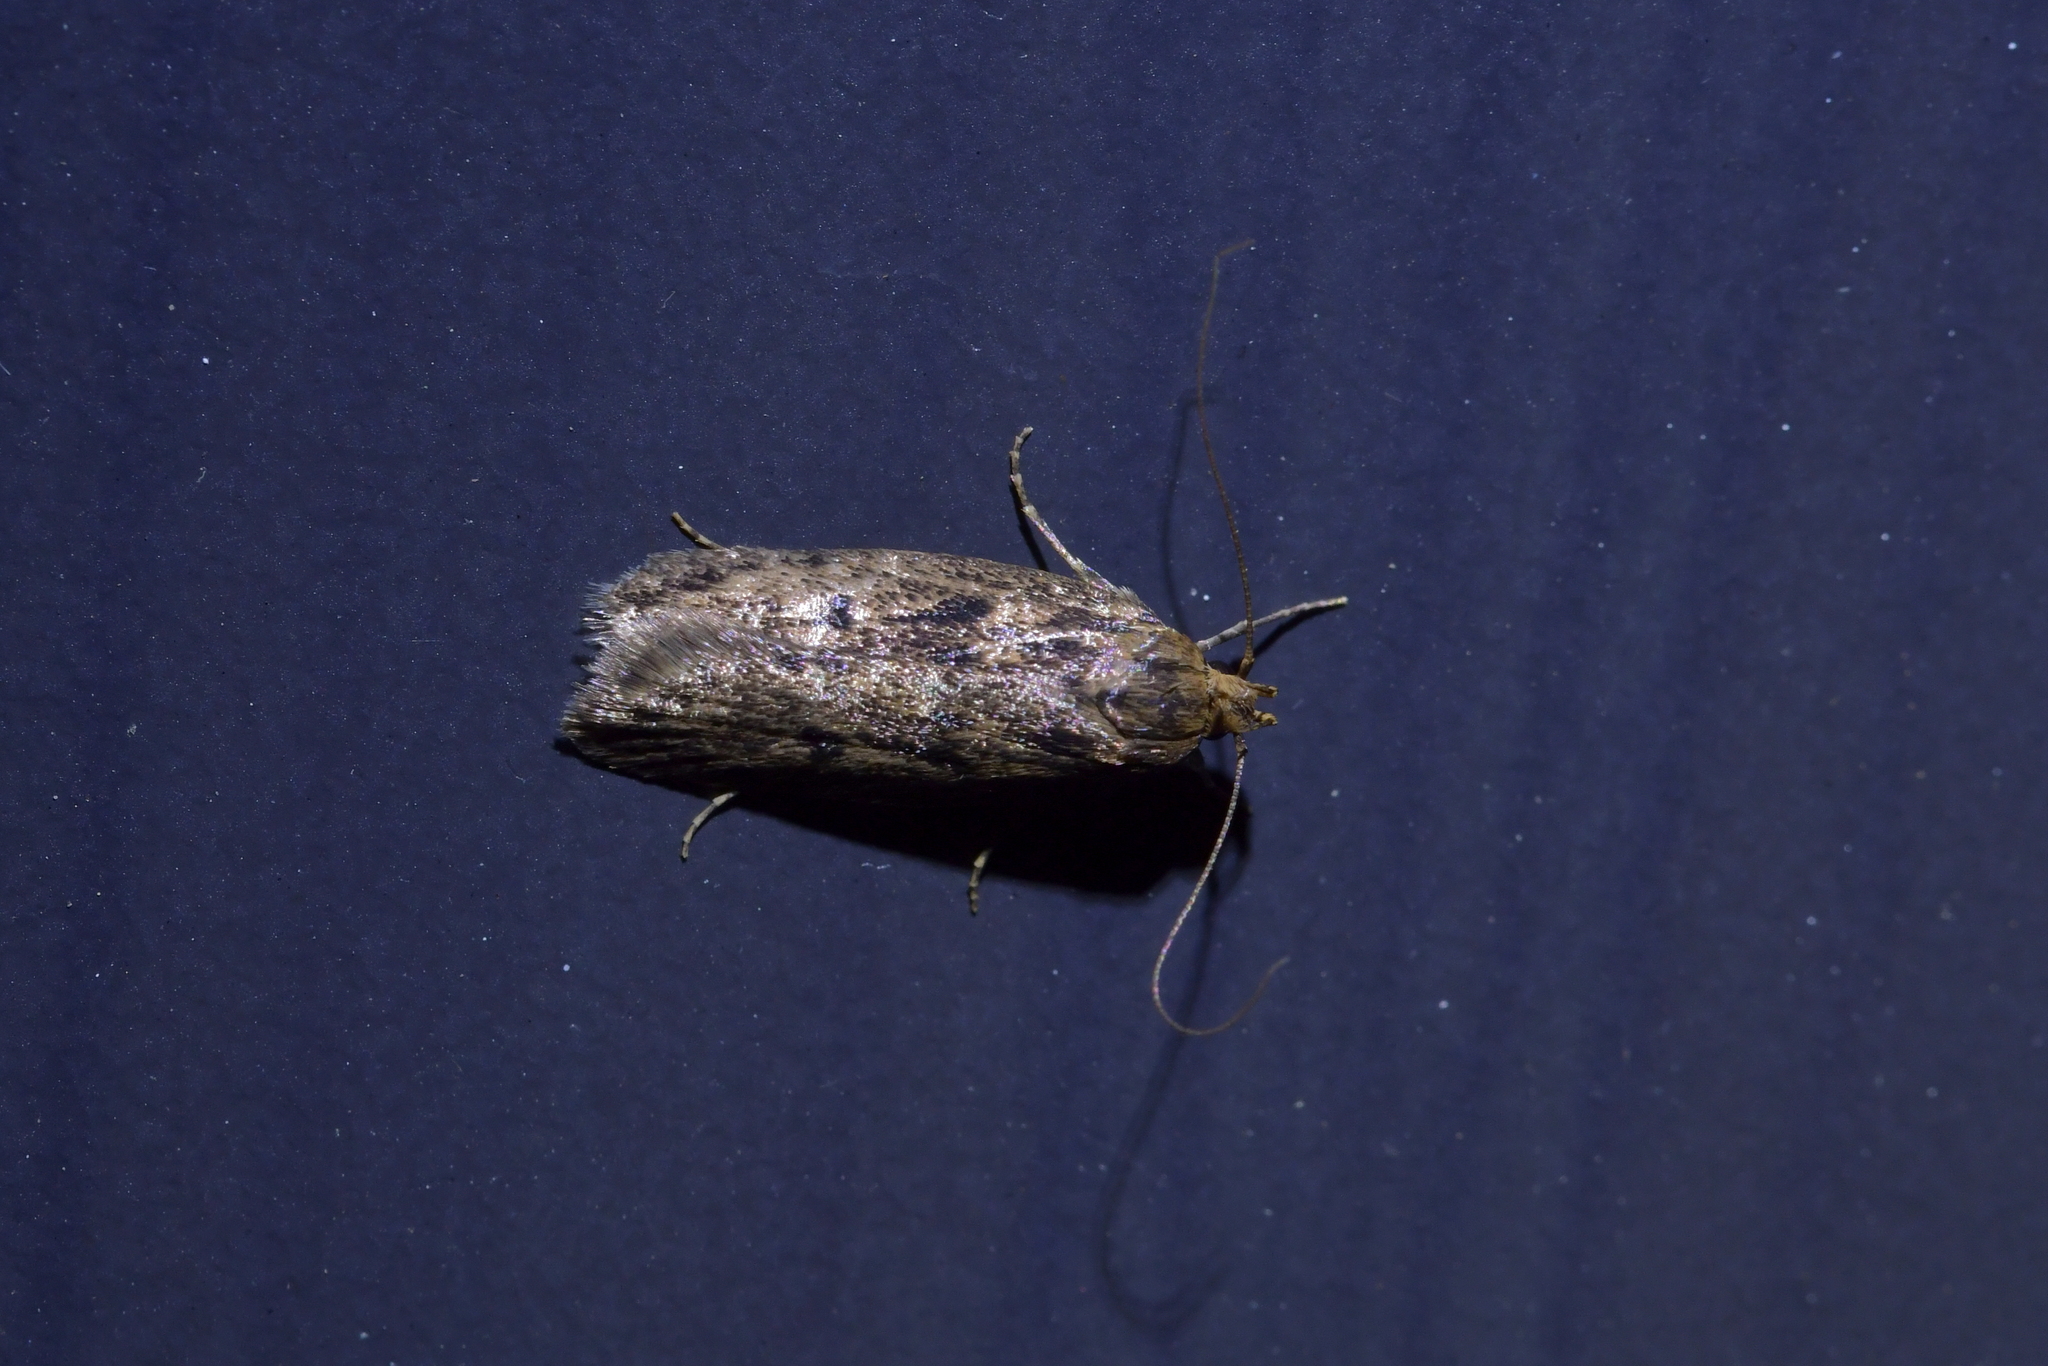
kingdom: Animalia
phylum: Arthropoda
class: Insecta
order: Lepidoptera
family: Oecophoridae
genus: Hofmannophila
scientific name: Hofmannophila pseudospretella
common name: Brown house moth
